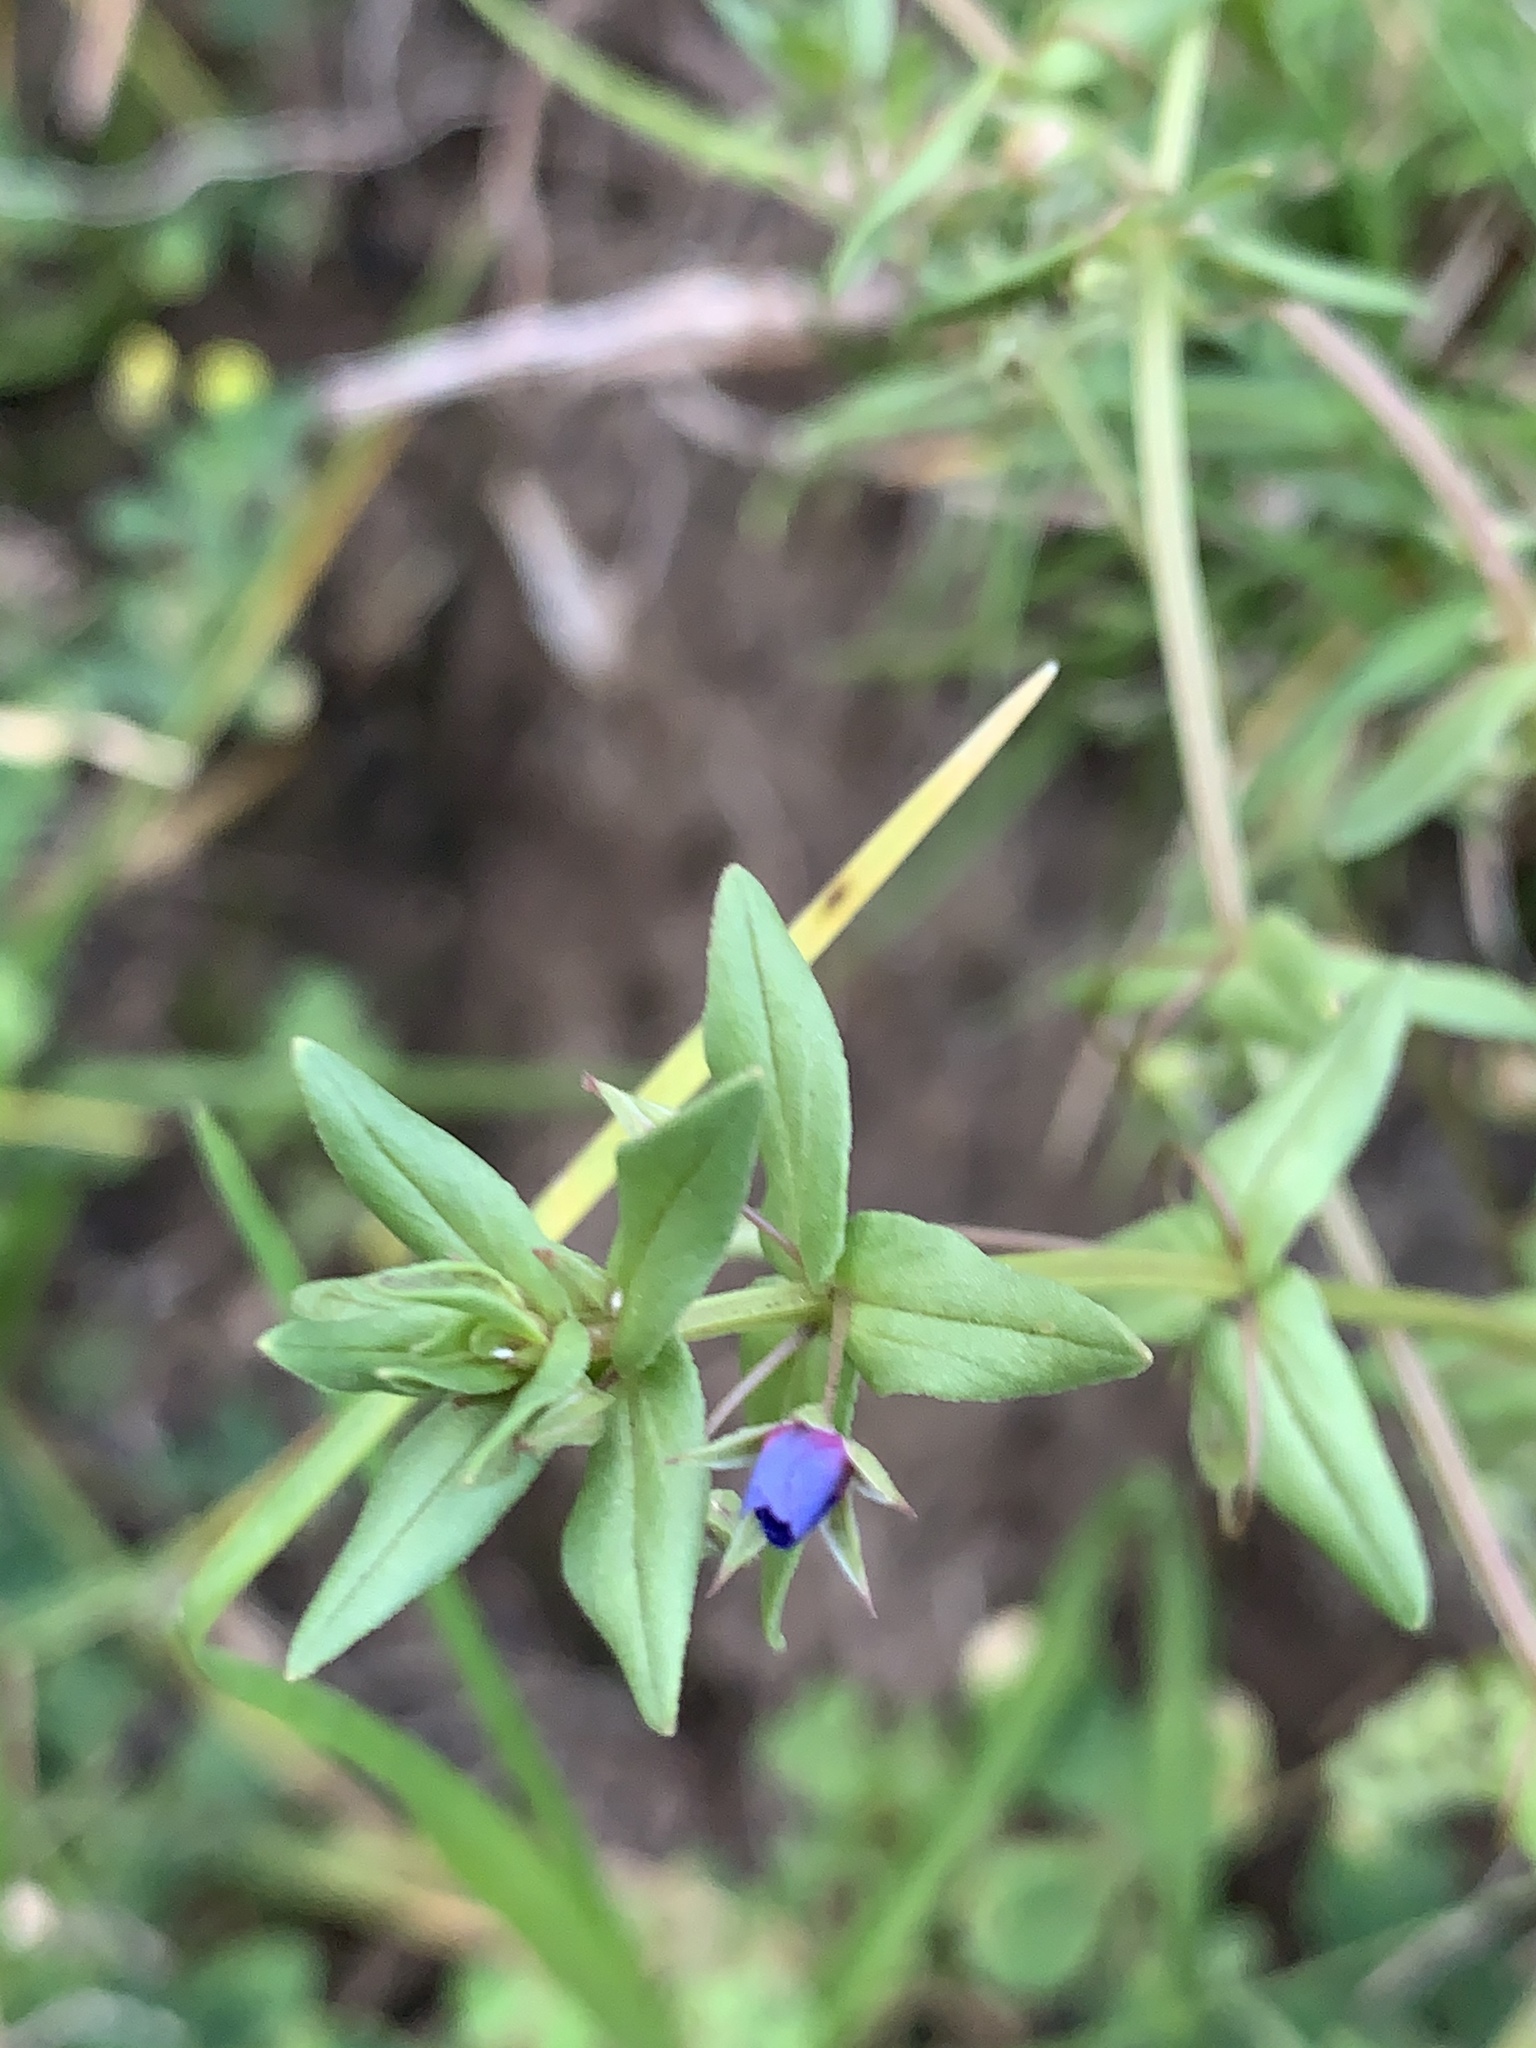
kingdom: Plantae
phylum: Tracheophyta
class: Magnoliopsida
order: Ericales
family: Primulaceae
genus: Lysimachia
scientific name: Lysimachia arvensis
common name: Scarlet pimpernel
